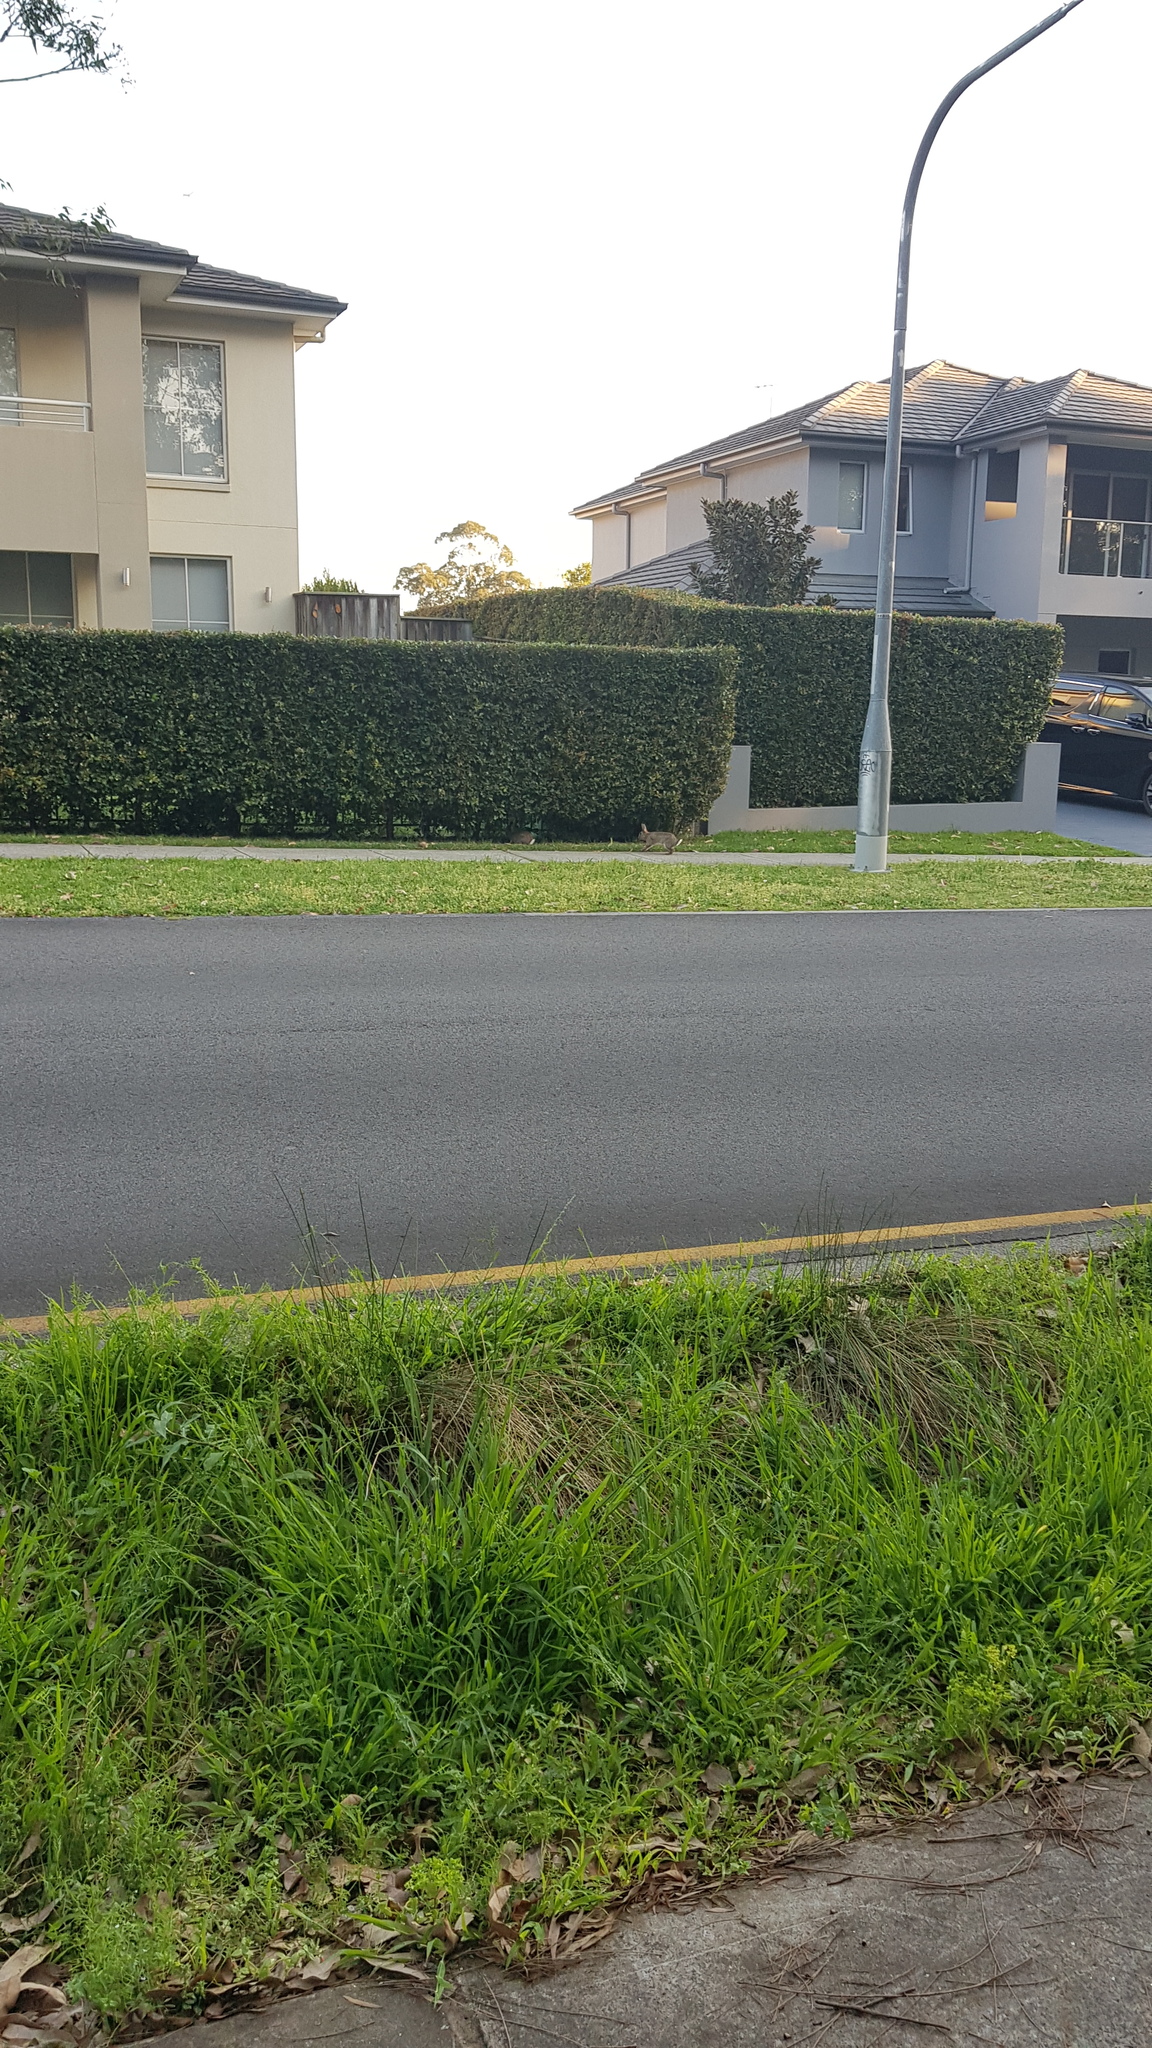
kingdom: Animalia
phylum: Chordata
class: Mammalia
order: Lagomorpha
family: Leporidae
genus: Oryctolagus
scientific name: Oryctolagus cuniculus
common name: European rabbit
